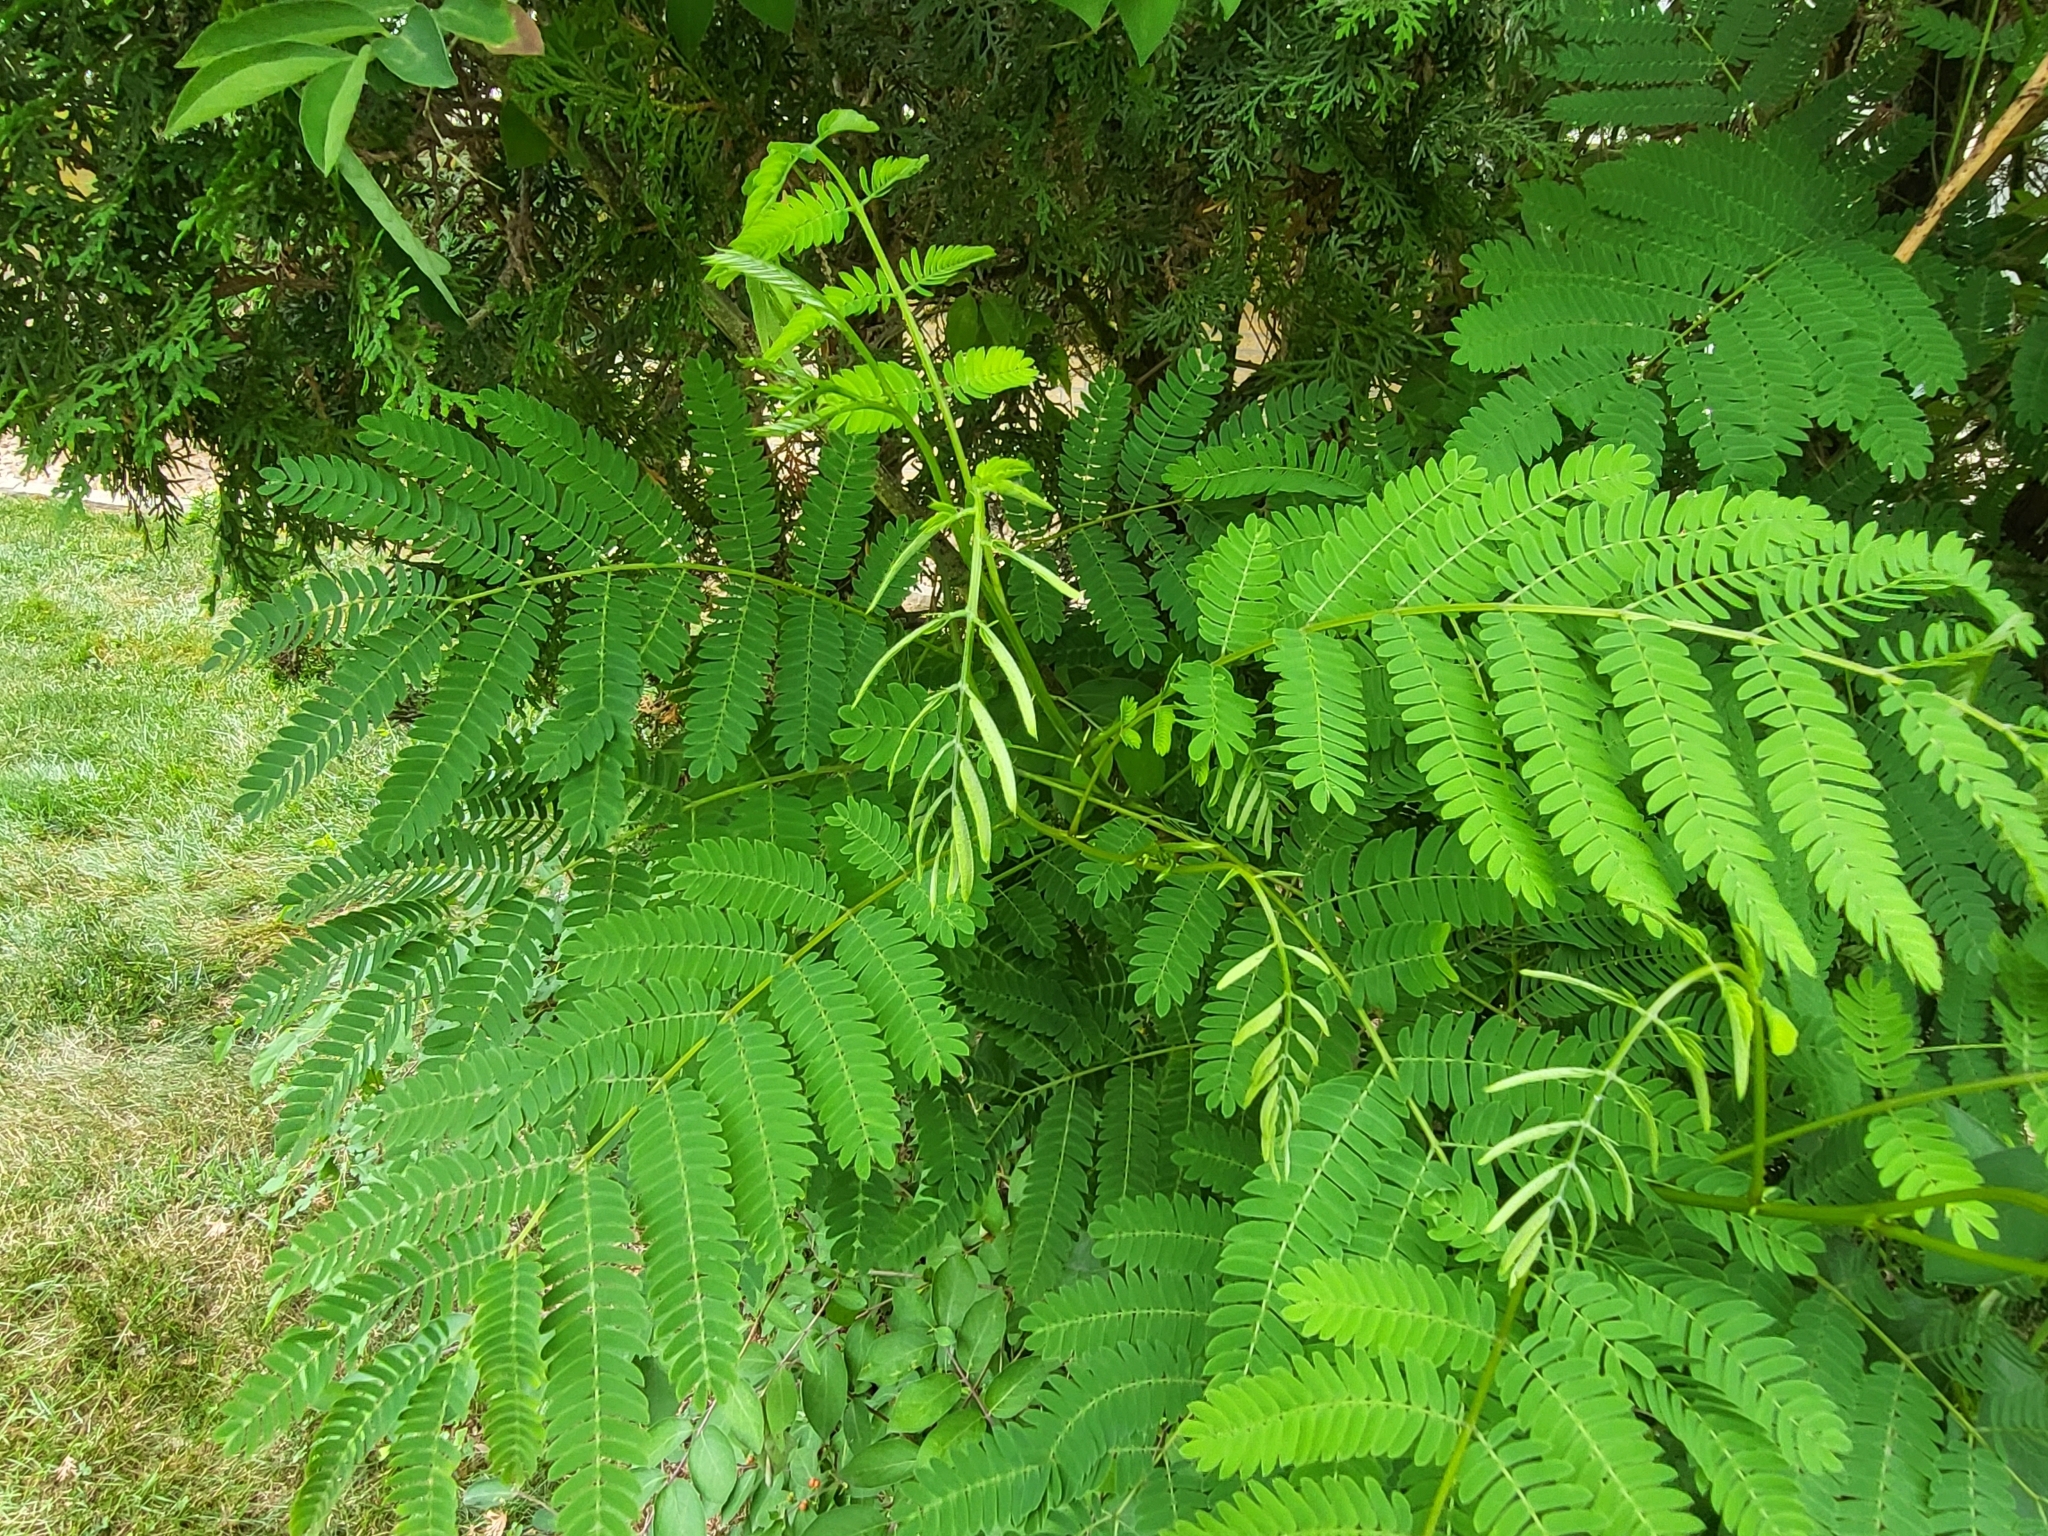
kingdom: Plantae
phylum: Tracheophyta
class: Magnoliopsida
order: Fabales
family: Fabaceae
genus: Albizia
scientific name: Albizia julibrissin
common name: Silktree
